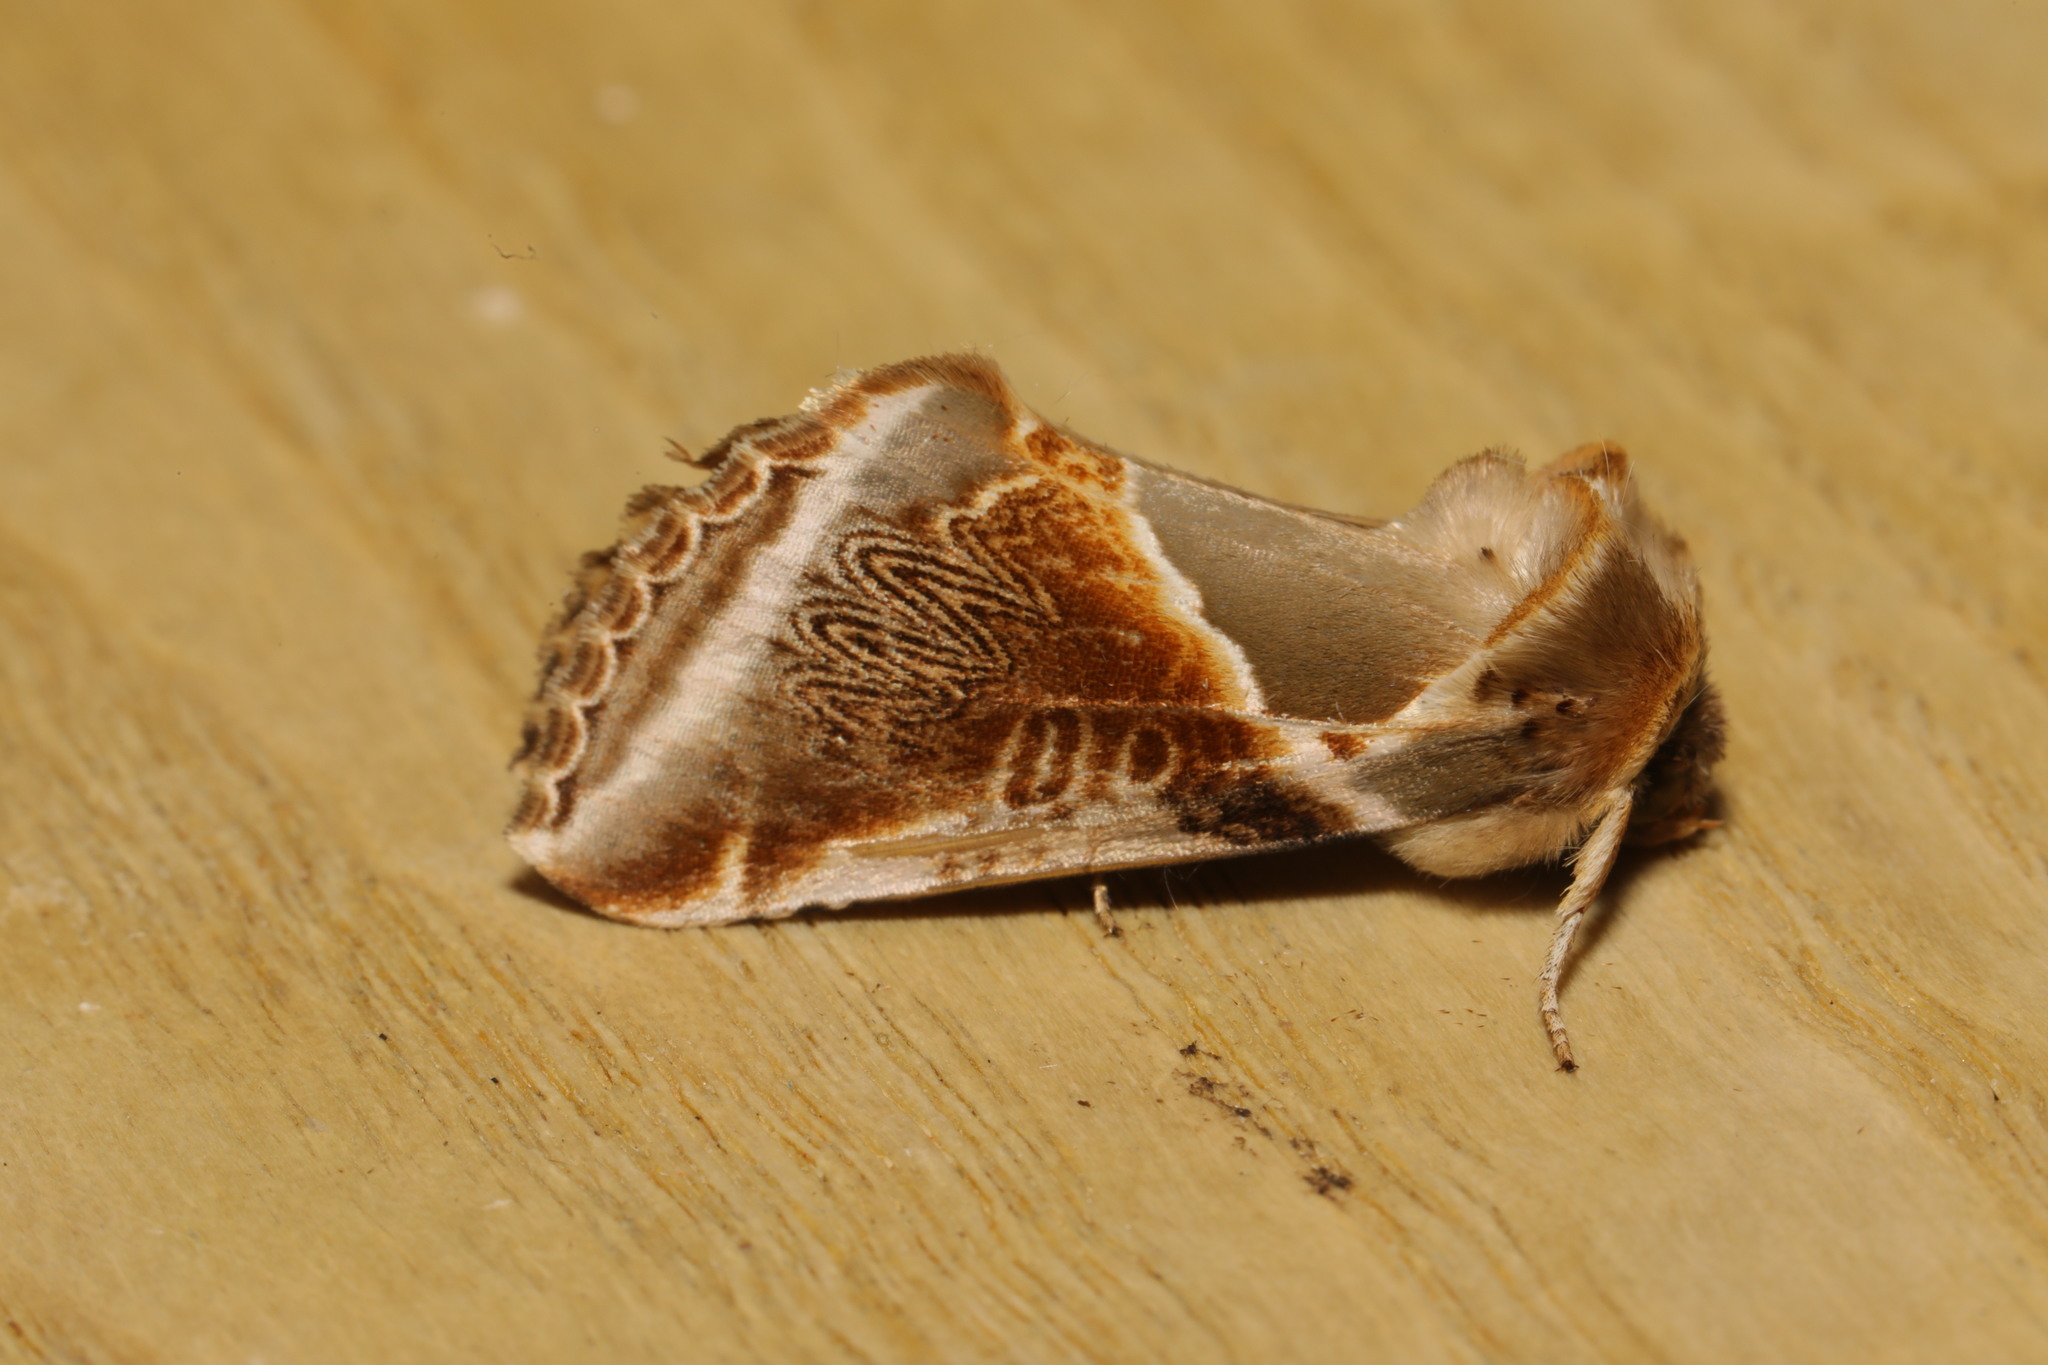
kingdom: Animalia
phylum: Arthropoda
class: Insecta
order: Lepidoptera
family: Drepanidae
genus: Habrosyne
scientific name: Habrosyne pyritoides
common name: Buff arches
